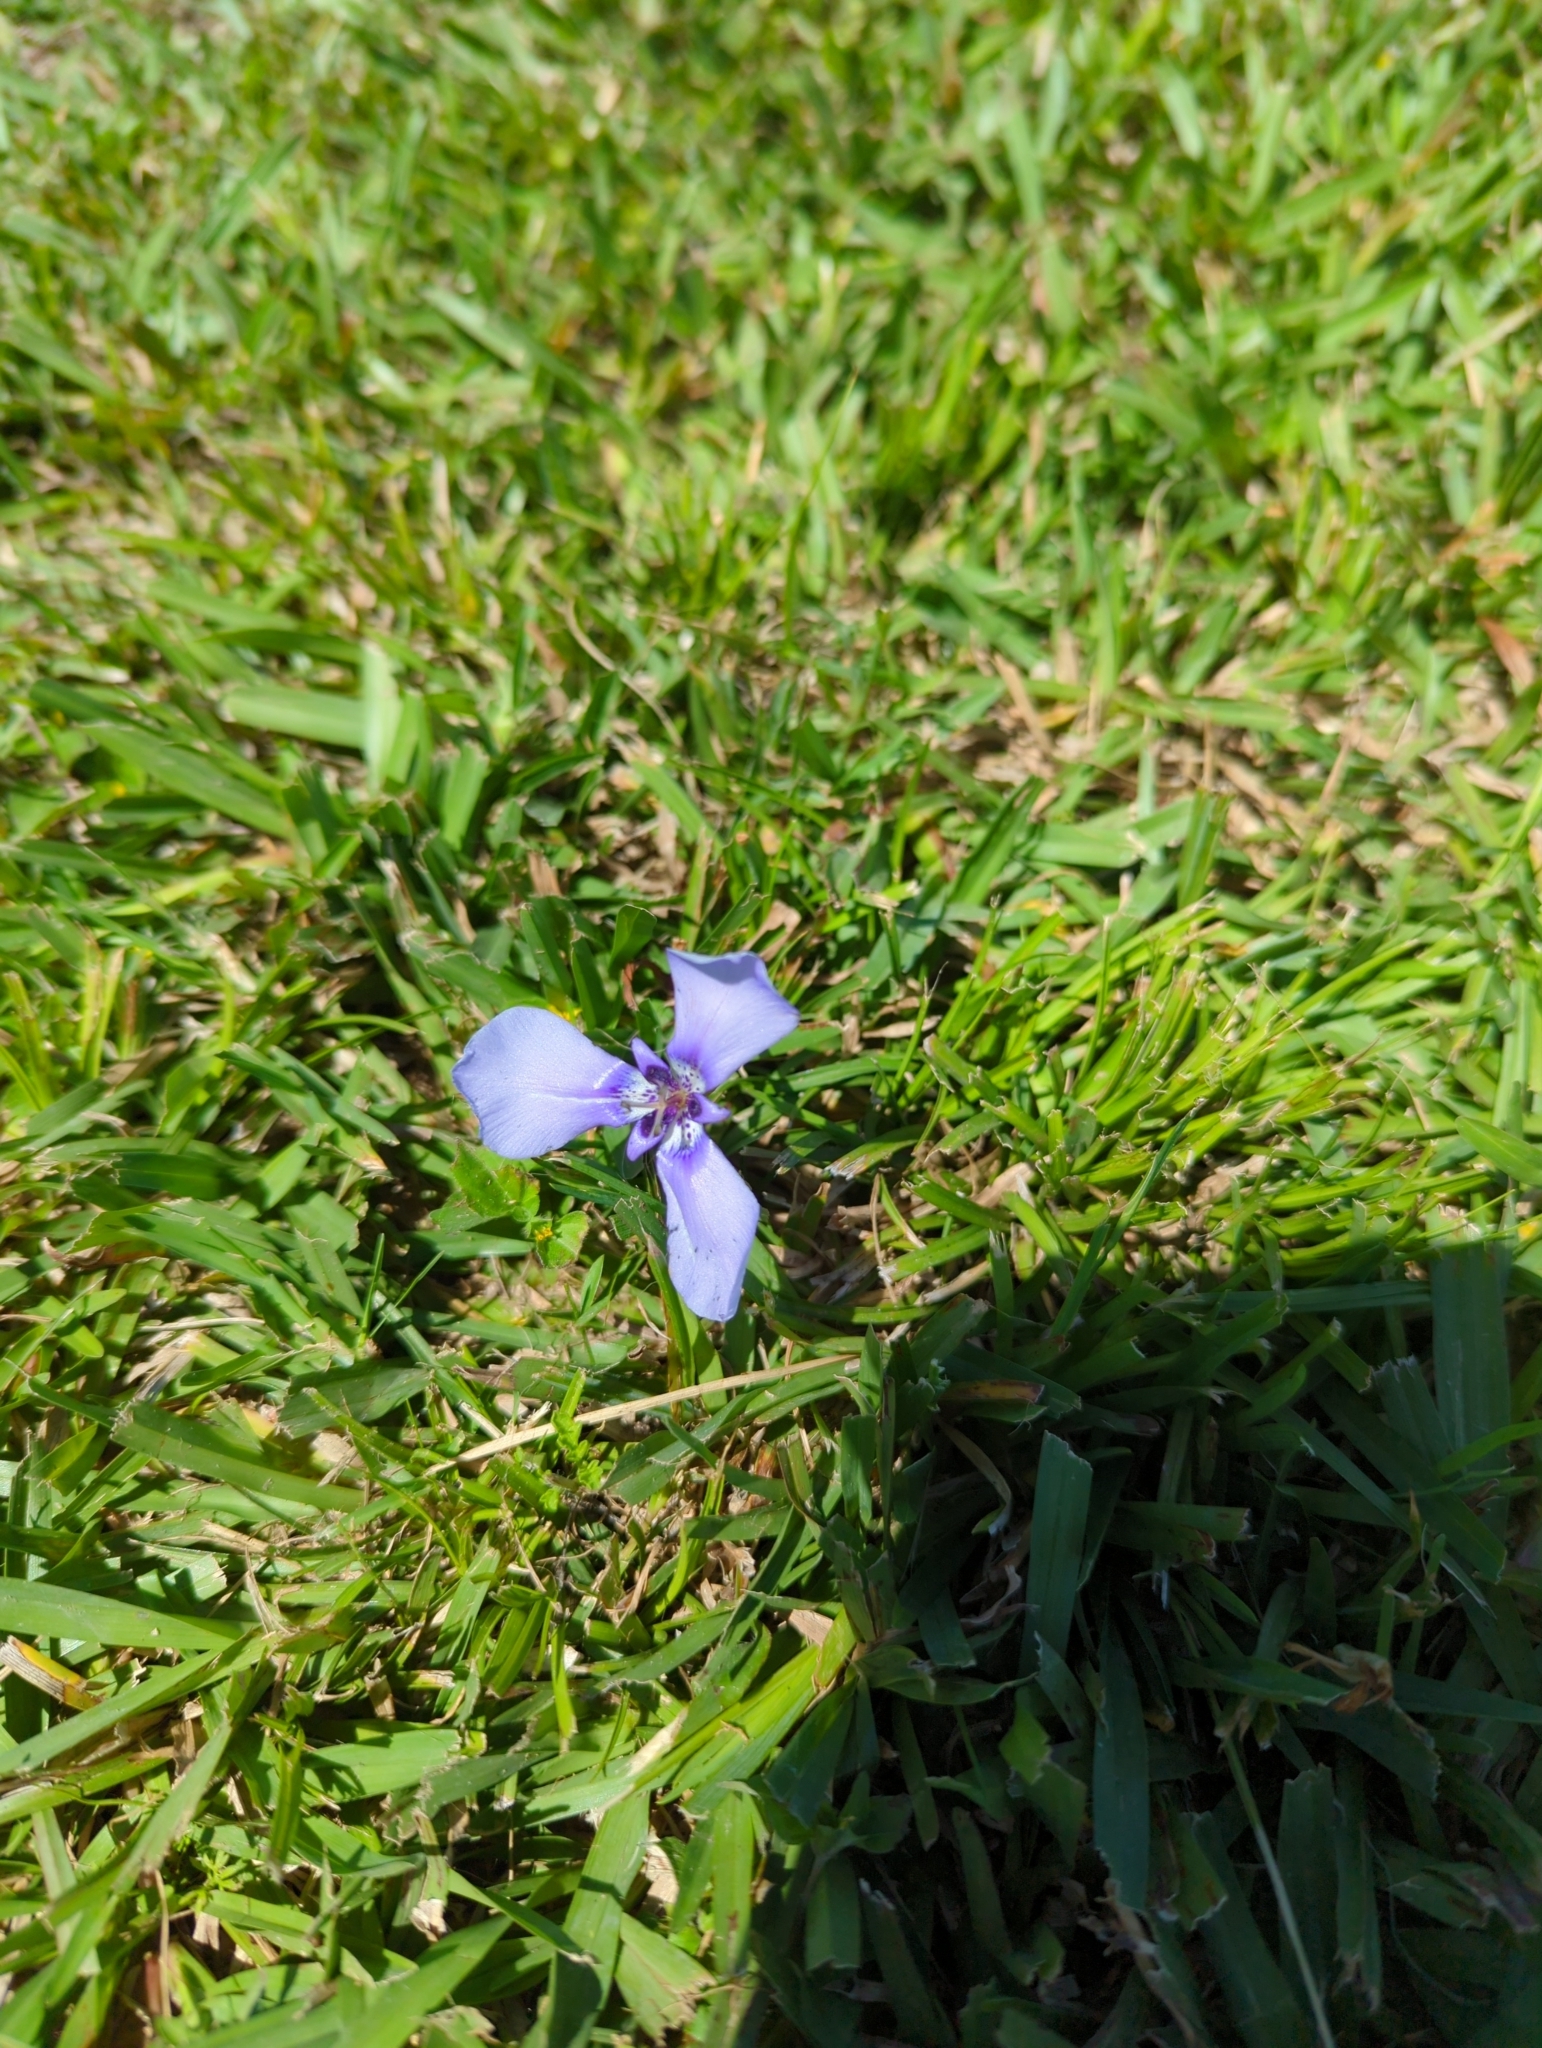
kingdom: Plantae
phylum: Tracheophyta
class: Liliopsida
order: Asparagales
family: Iridaceae
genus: Herbertia
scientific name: Herbertia lahue
